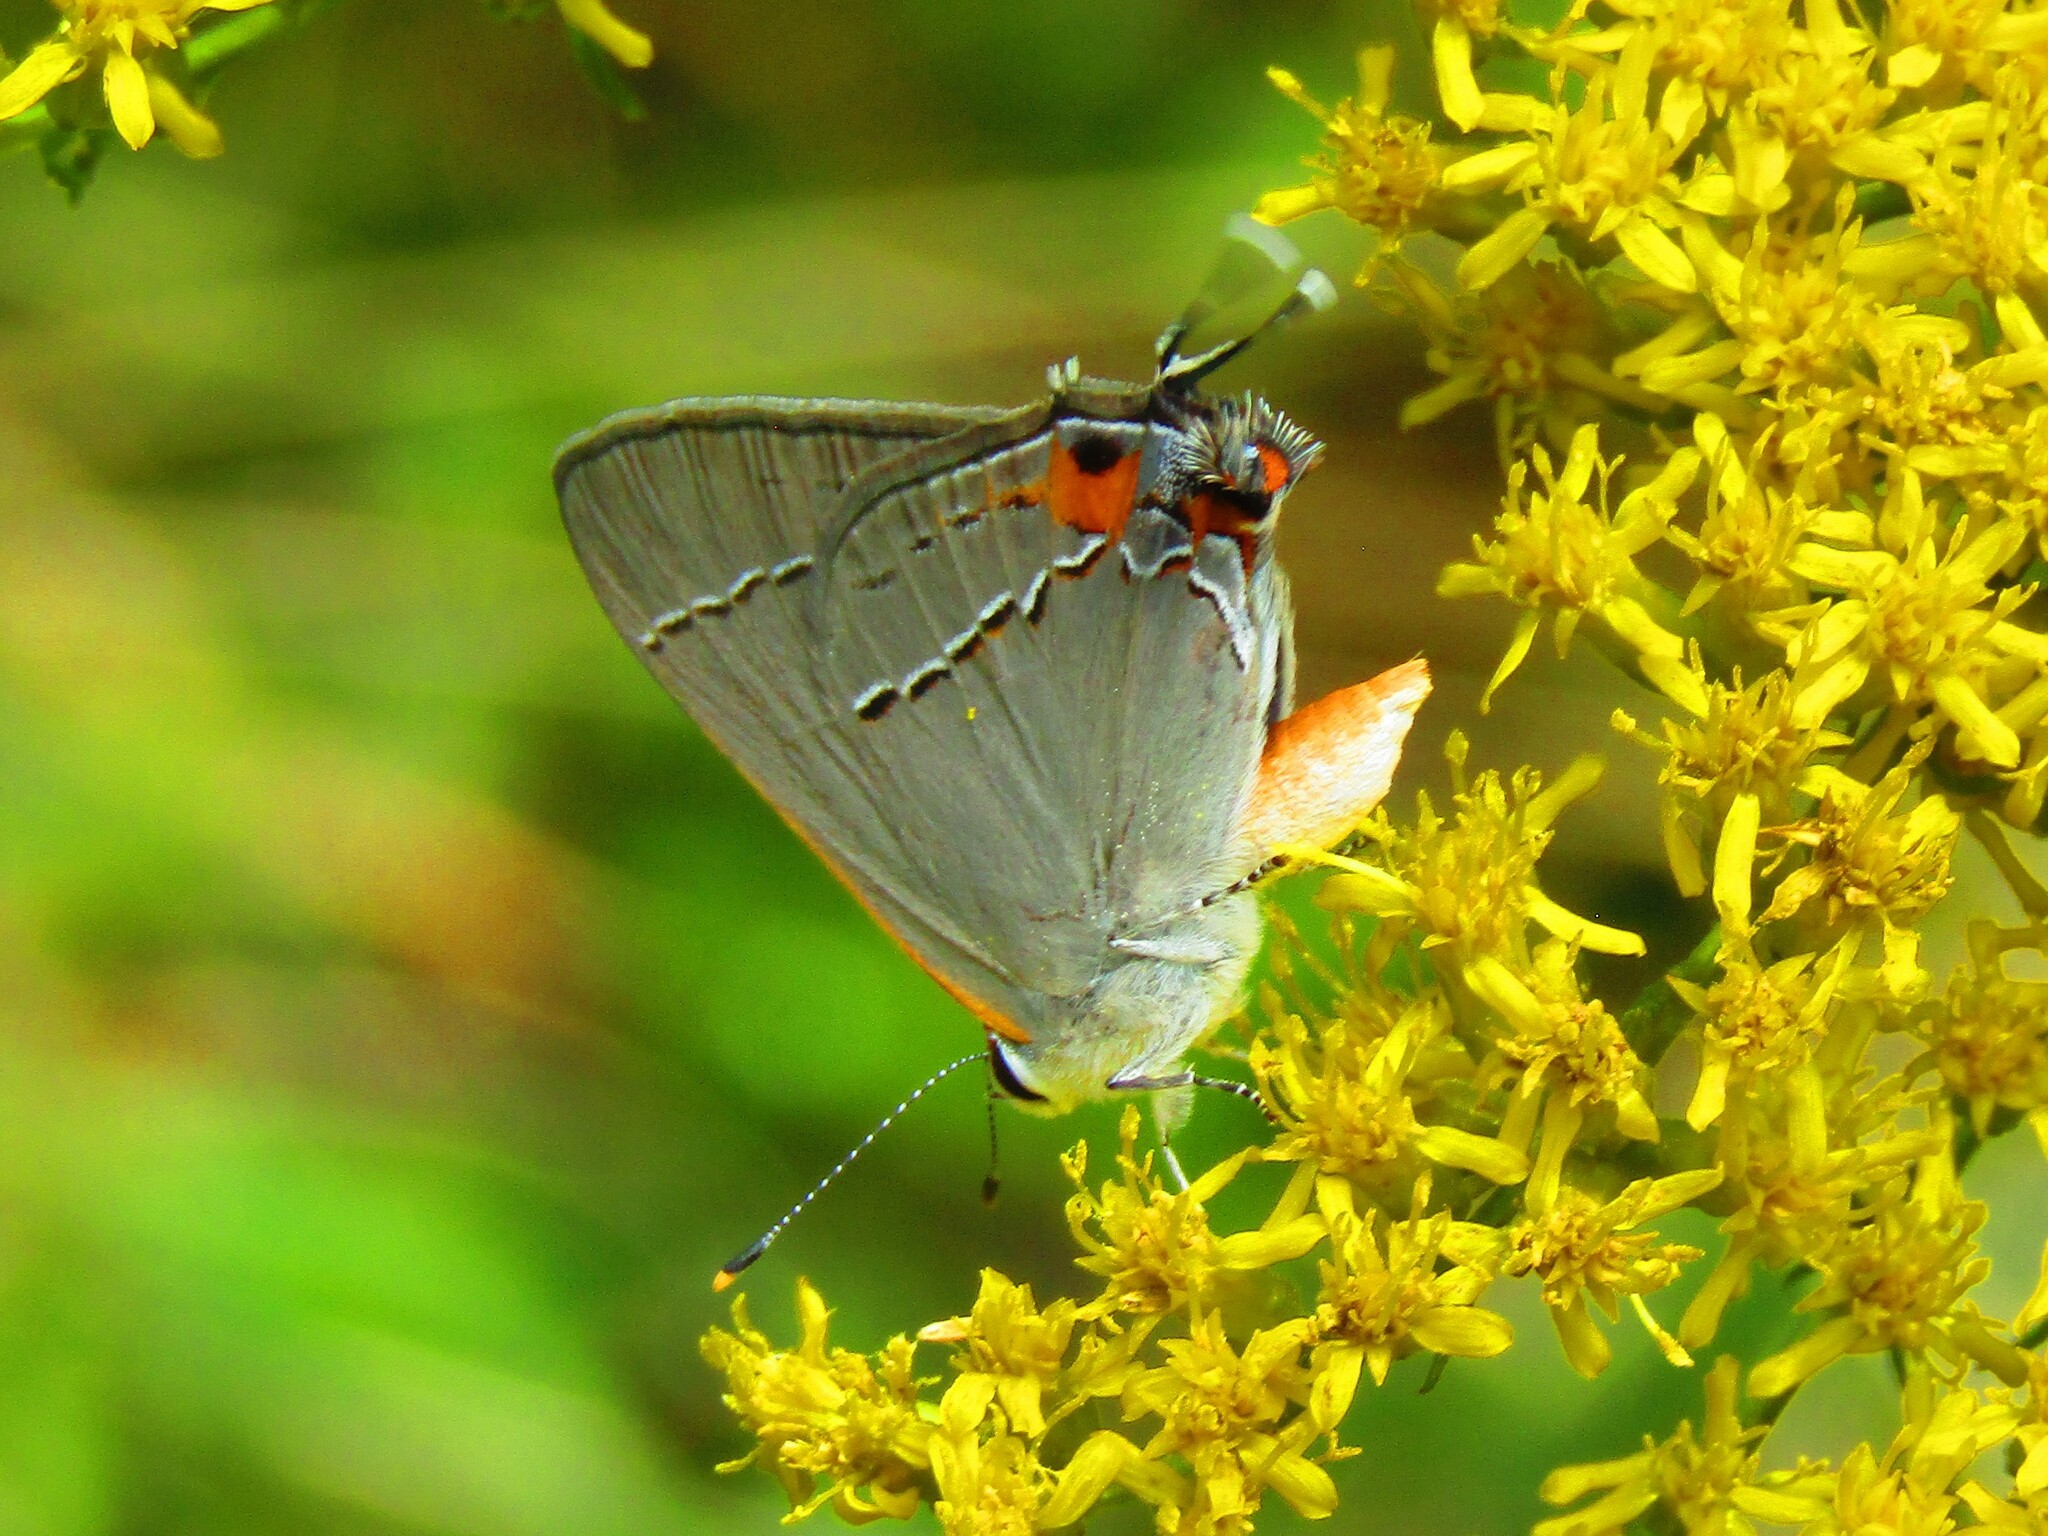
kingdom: Animalia
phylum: Arthropoda
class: Insecta
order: Lepidoptera
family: Lycaenidae
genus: Strymon
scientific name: Strymon melinus
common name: Gray hairstreak
